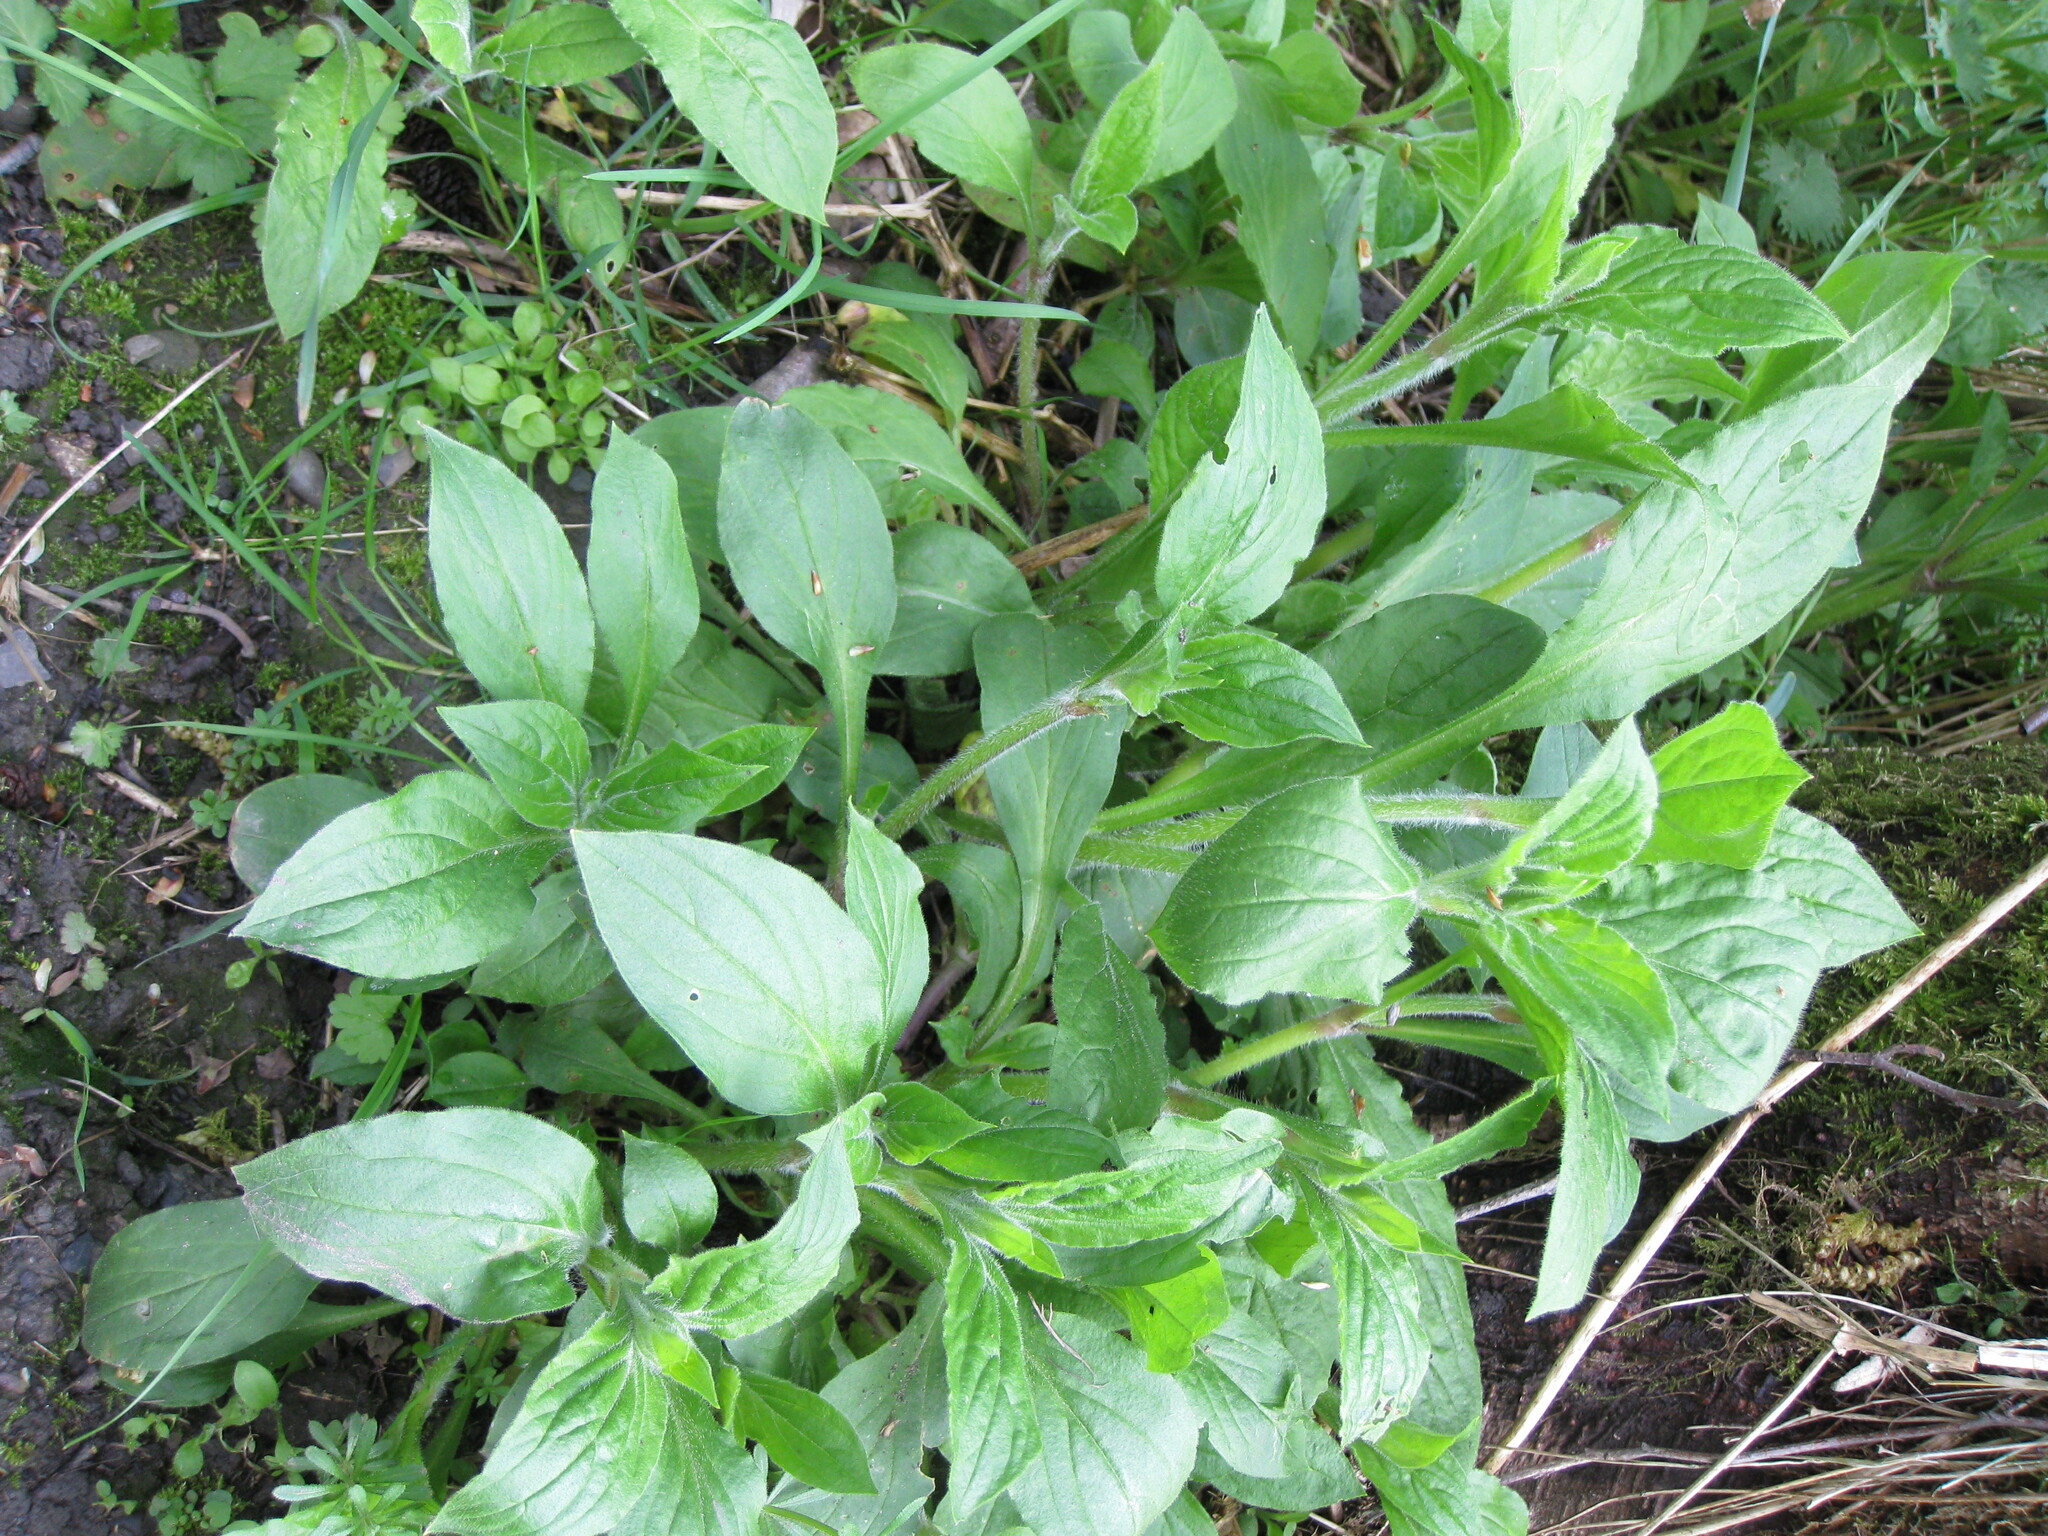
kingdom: Plantae
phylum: Tracheophyta
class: Magnoliopsida
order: Caryophyllales
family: Caryophyllaceae
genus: Silene
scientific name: Silene dioica
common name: Red campion
